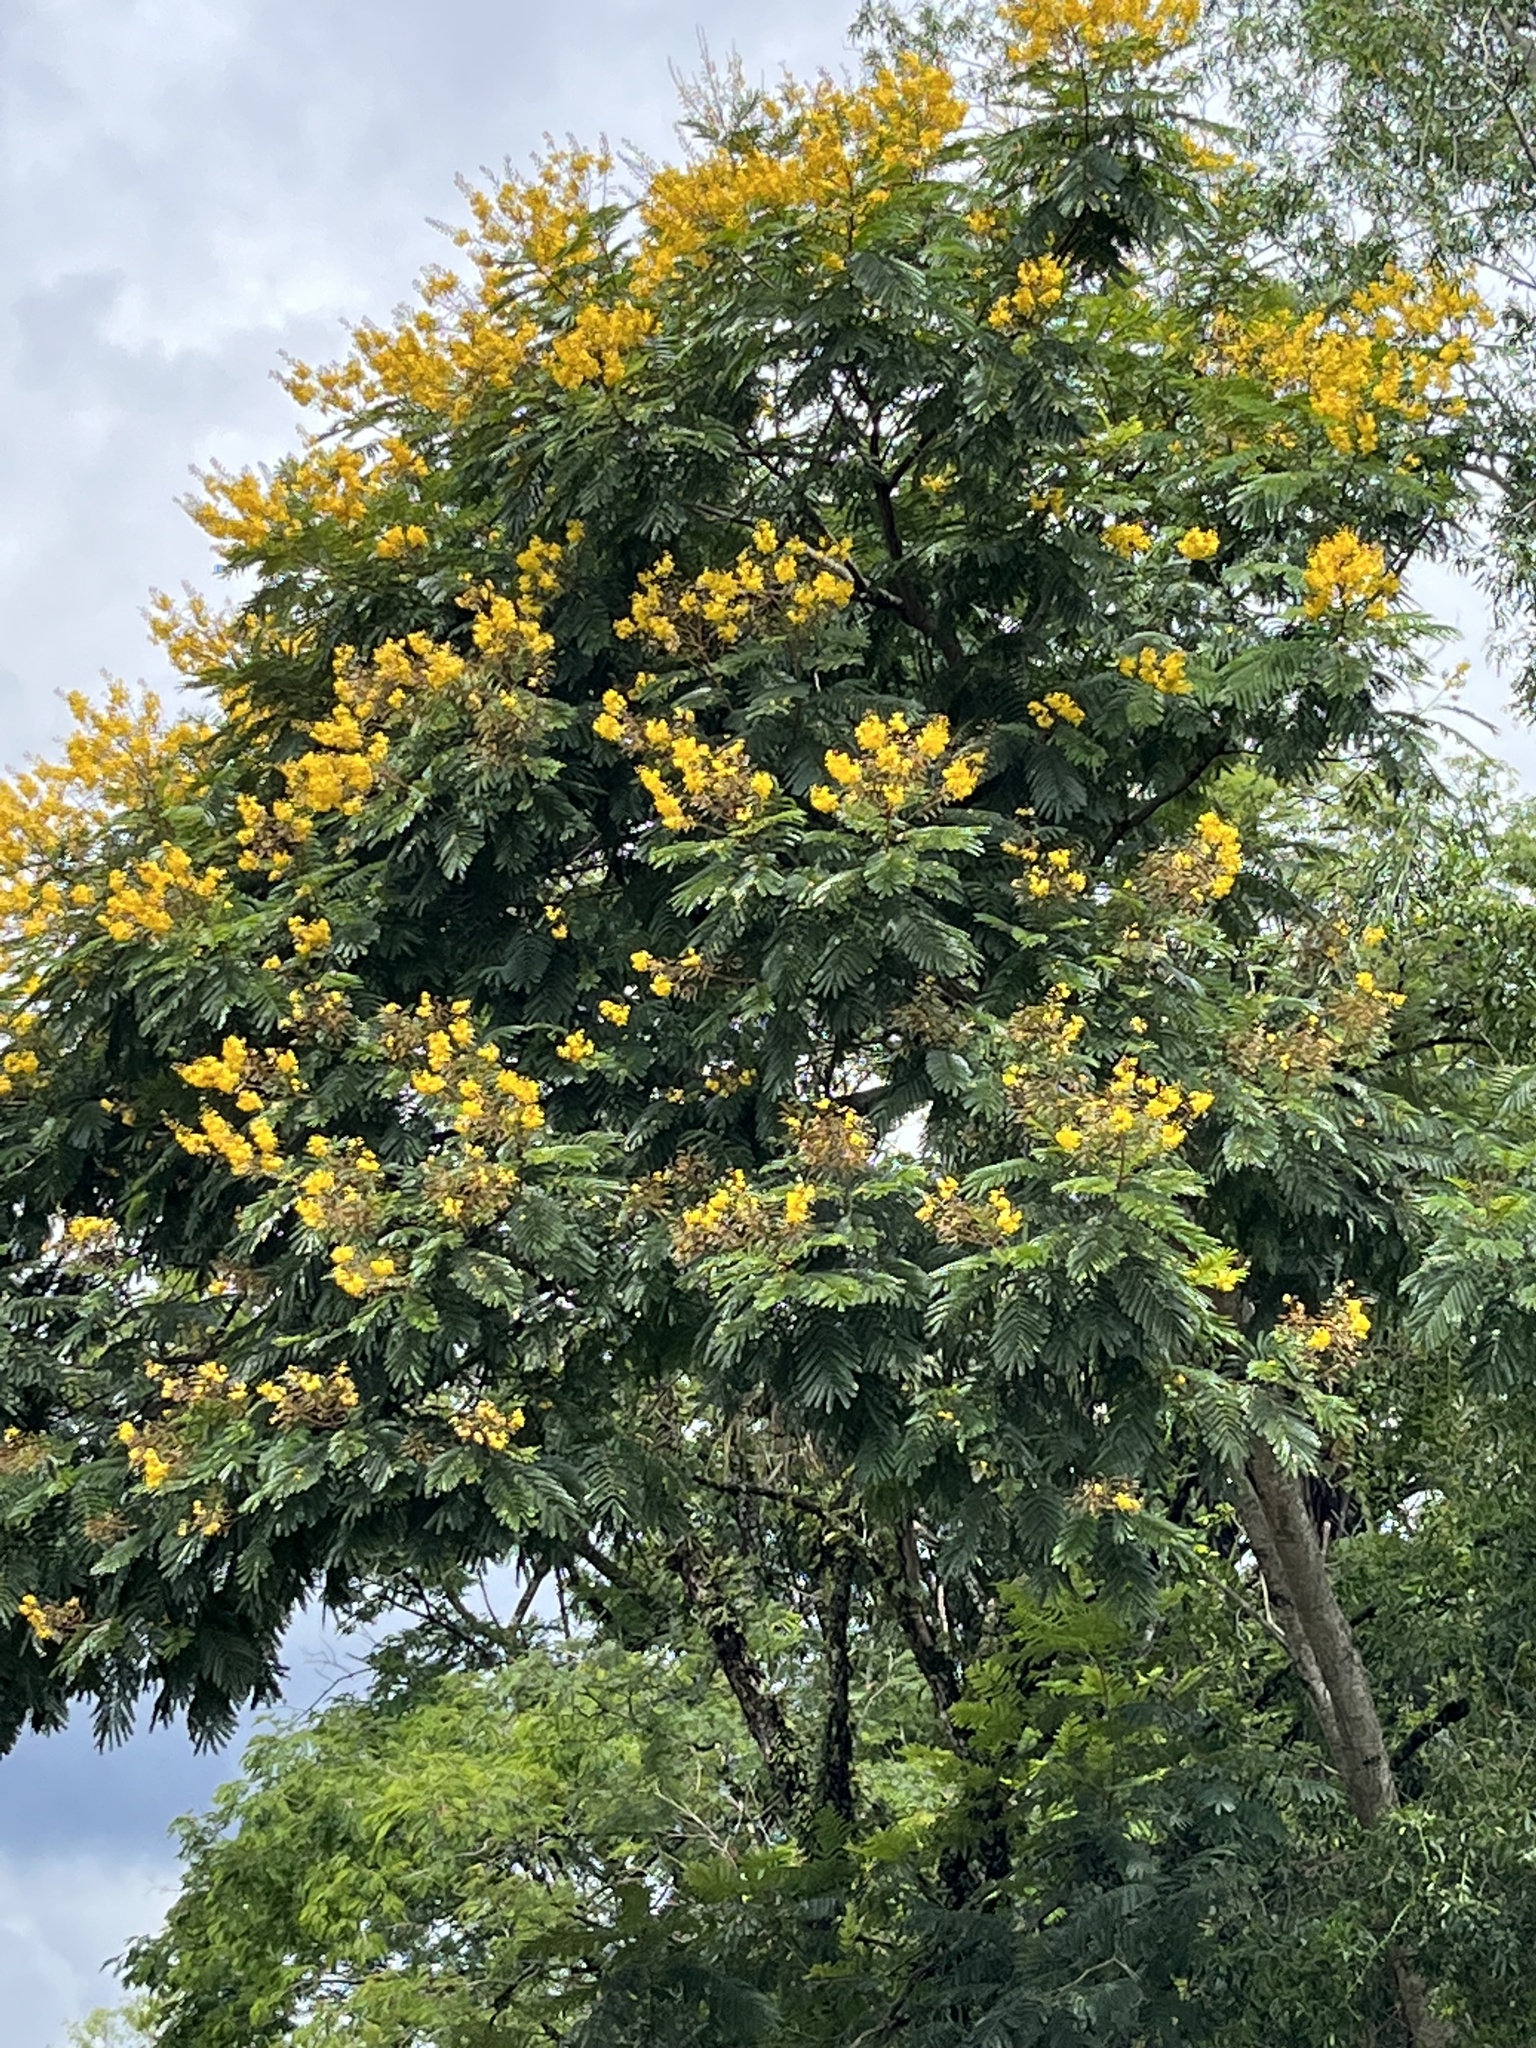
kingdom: Plantae
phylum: Tracheophyta
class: Magnoliopsida
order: Fabales
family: Fabaceae
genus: Peltophorum
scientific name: Peltophorum dubium
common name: Horsebush
